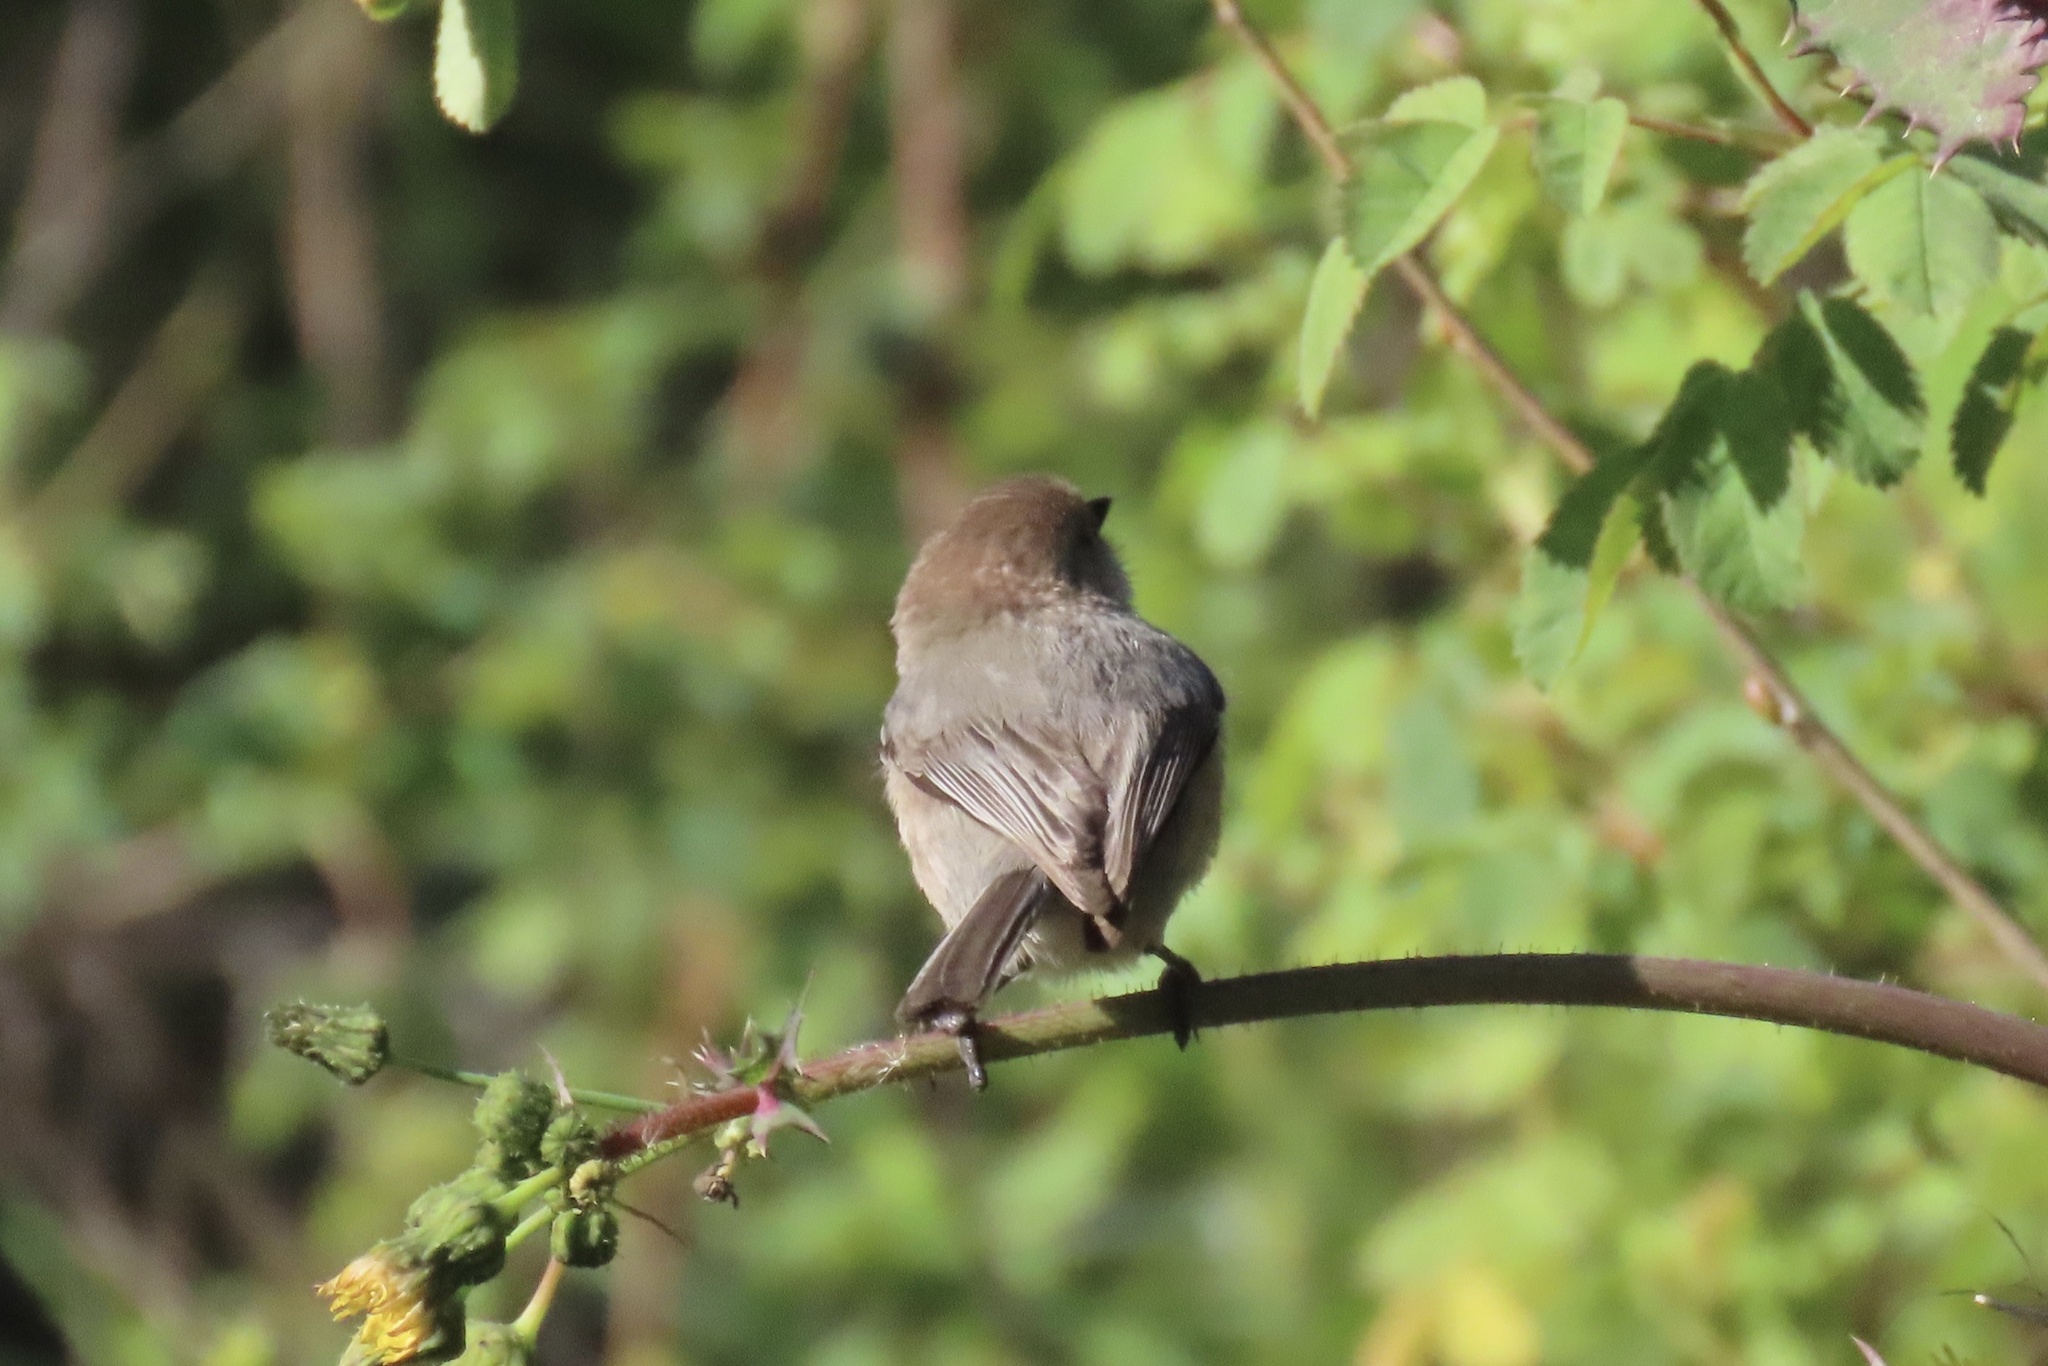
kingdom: Animalia
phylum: Chordata
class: Aves
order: Passeriformes
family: Aegithalidae
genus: Psaltriparus
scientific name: Psaltriparus minimus
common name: American bushtit
